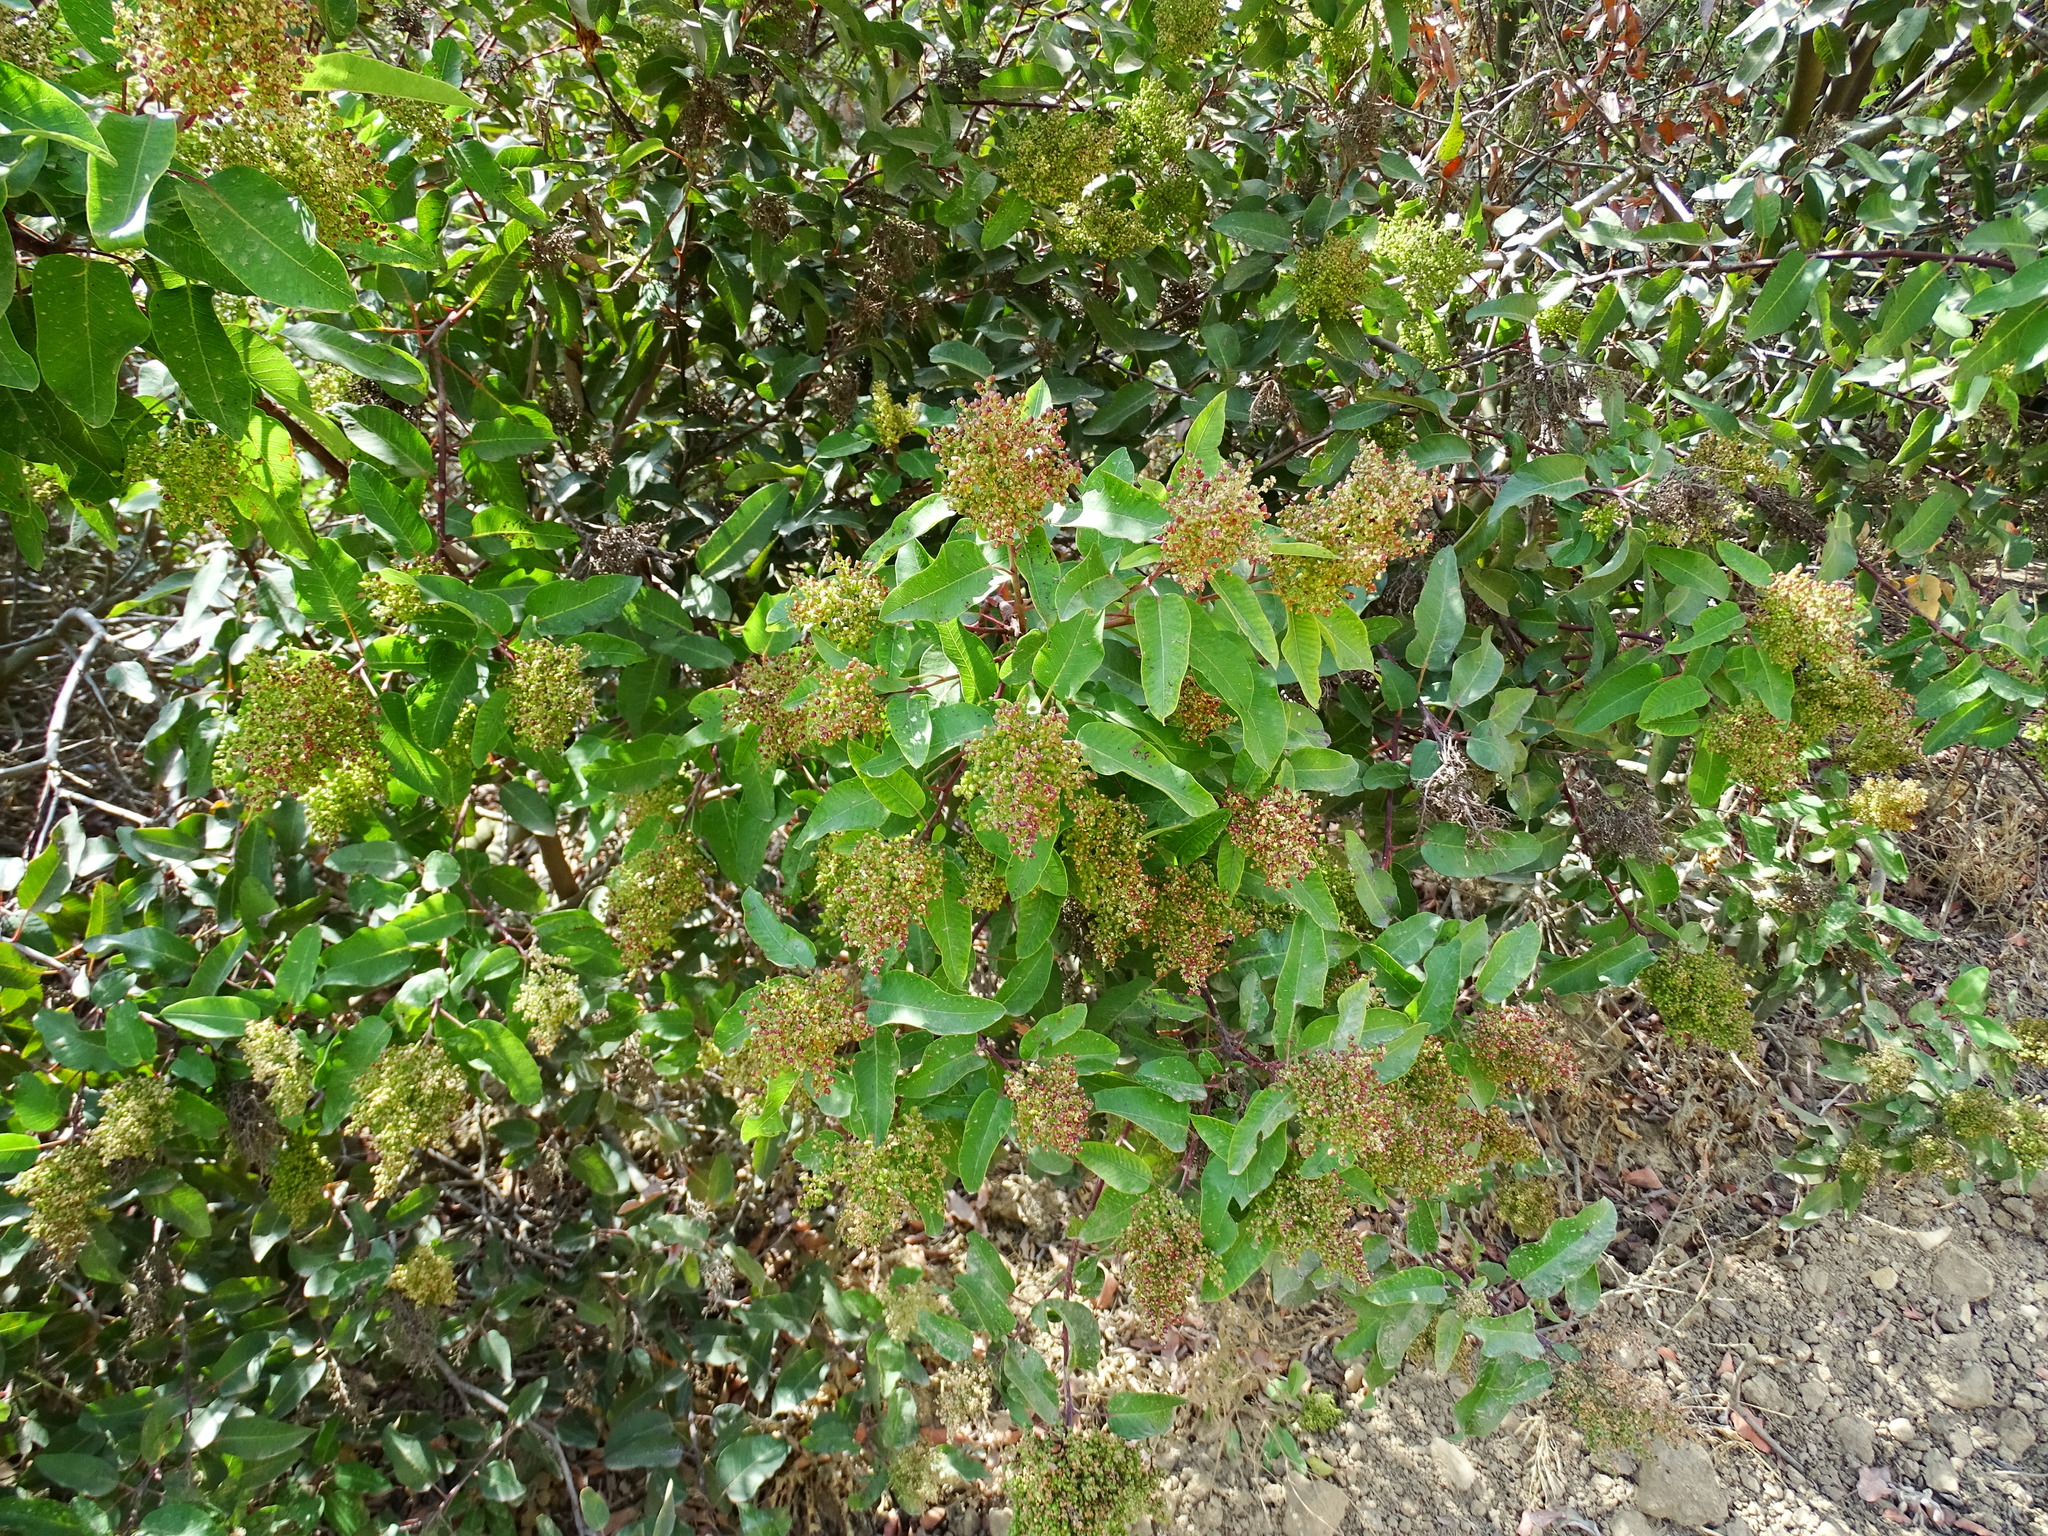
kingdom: Plantae
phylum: Tracheophyta
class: Magnoliopsida
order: Sapindales
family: Anacardiaceae
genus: Malosma
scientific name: Malosma laurina
